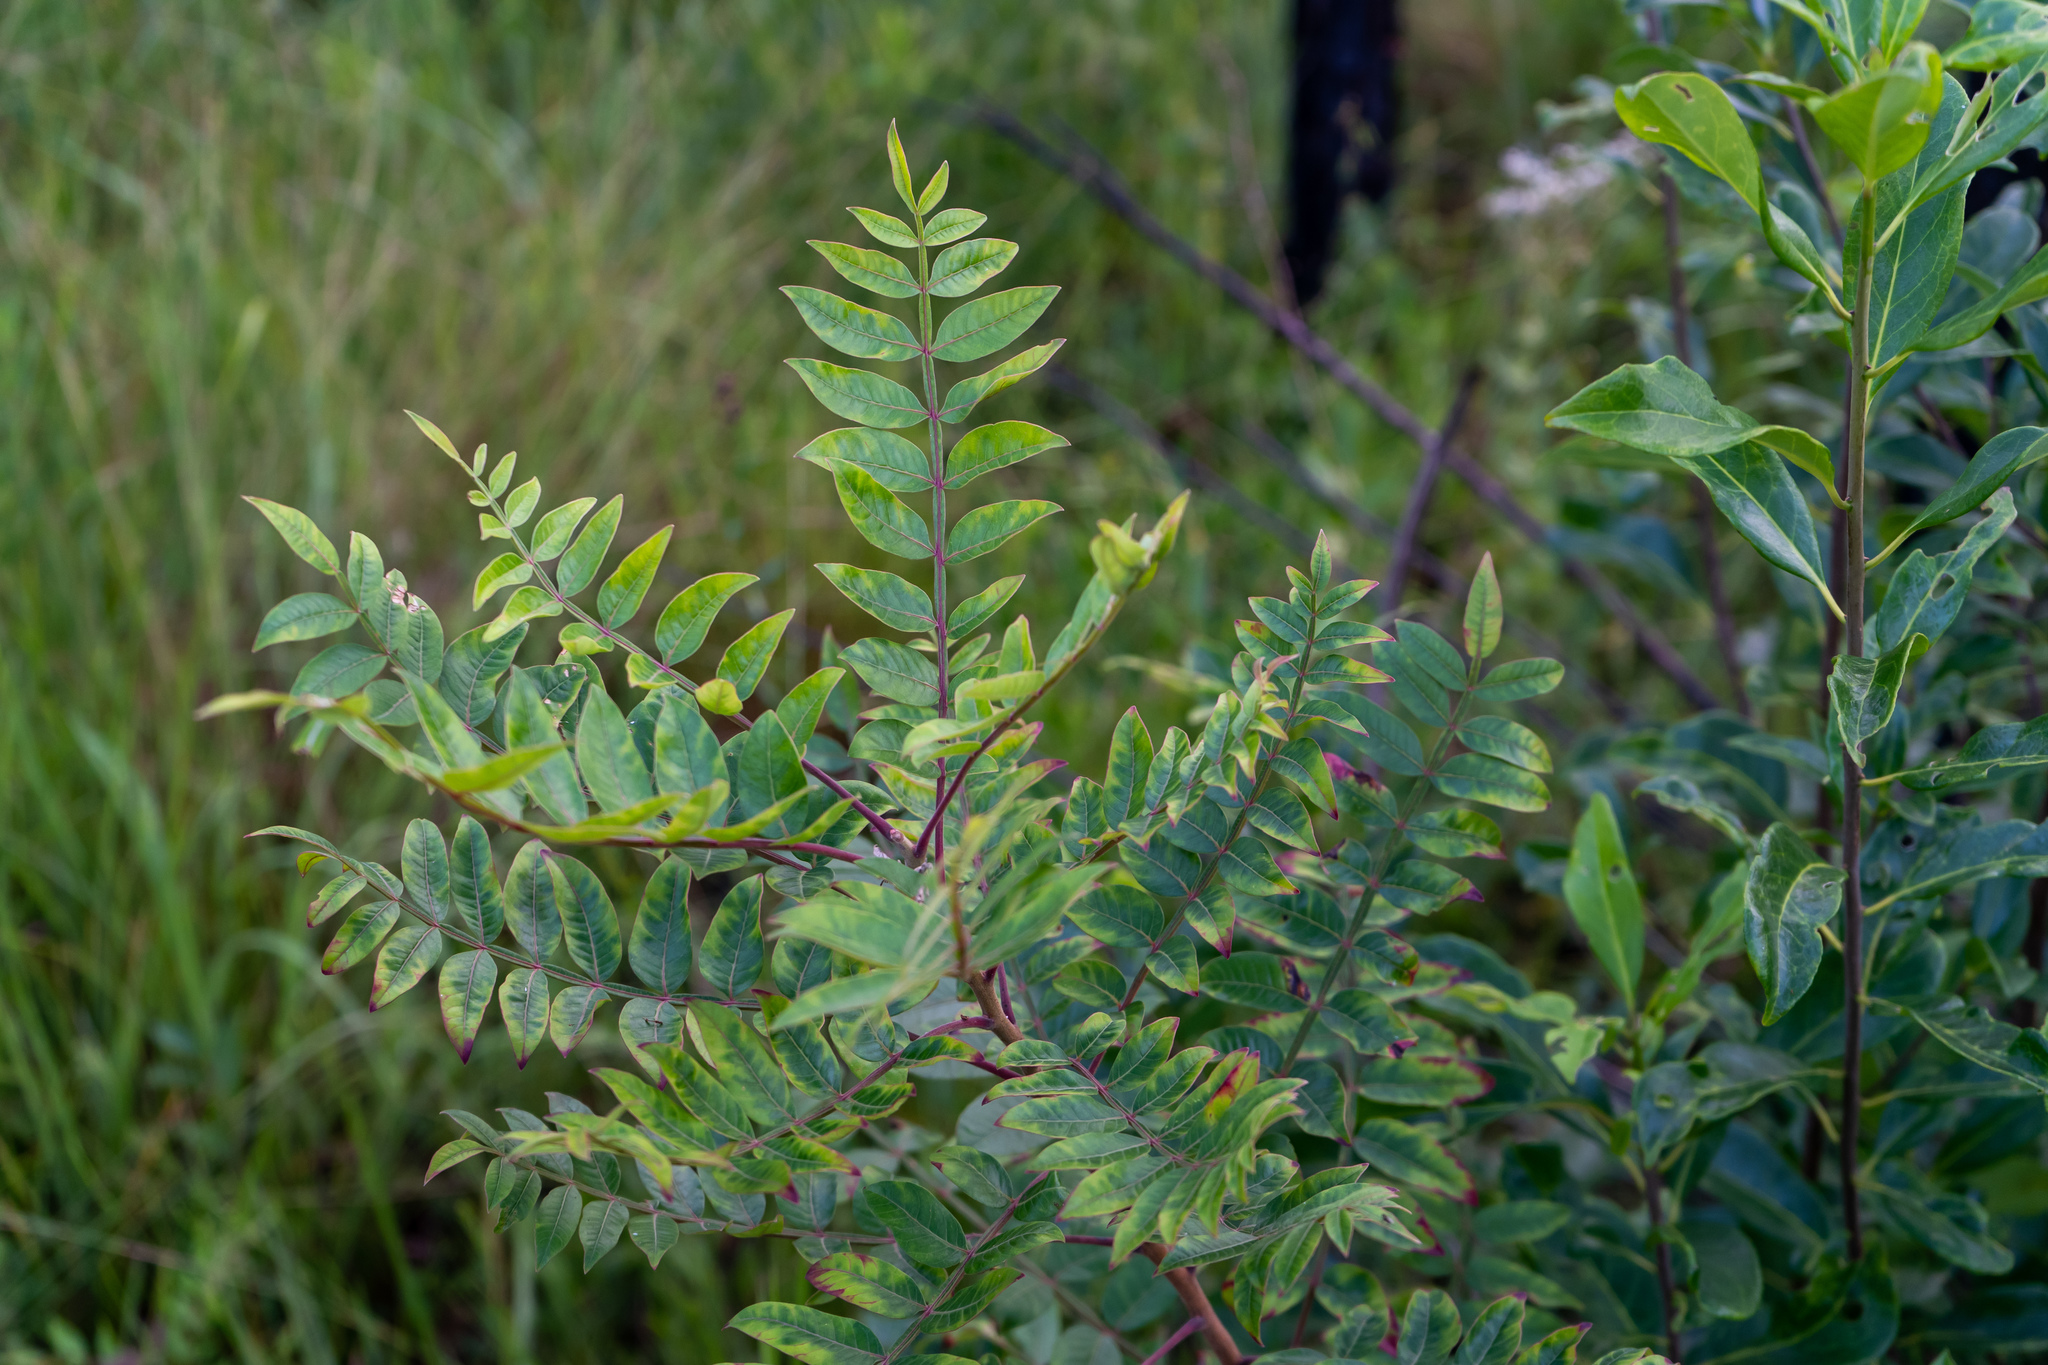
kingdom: Plantae
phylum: Tracheophyta
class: Magnoliopsida
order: Sapindales
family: Anacardiaceae
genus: Rhus
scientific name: Rhus copallina
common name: Shining sumac
